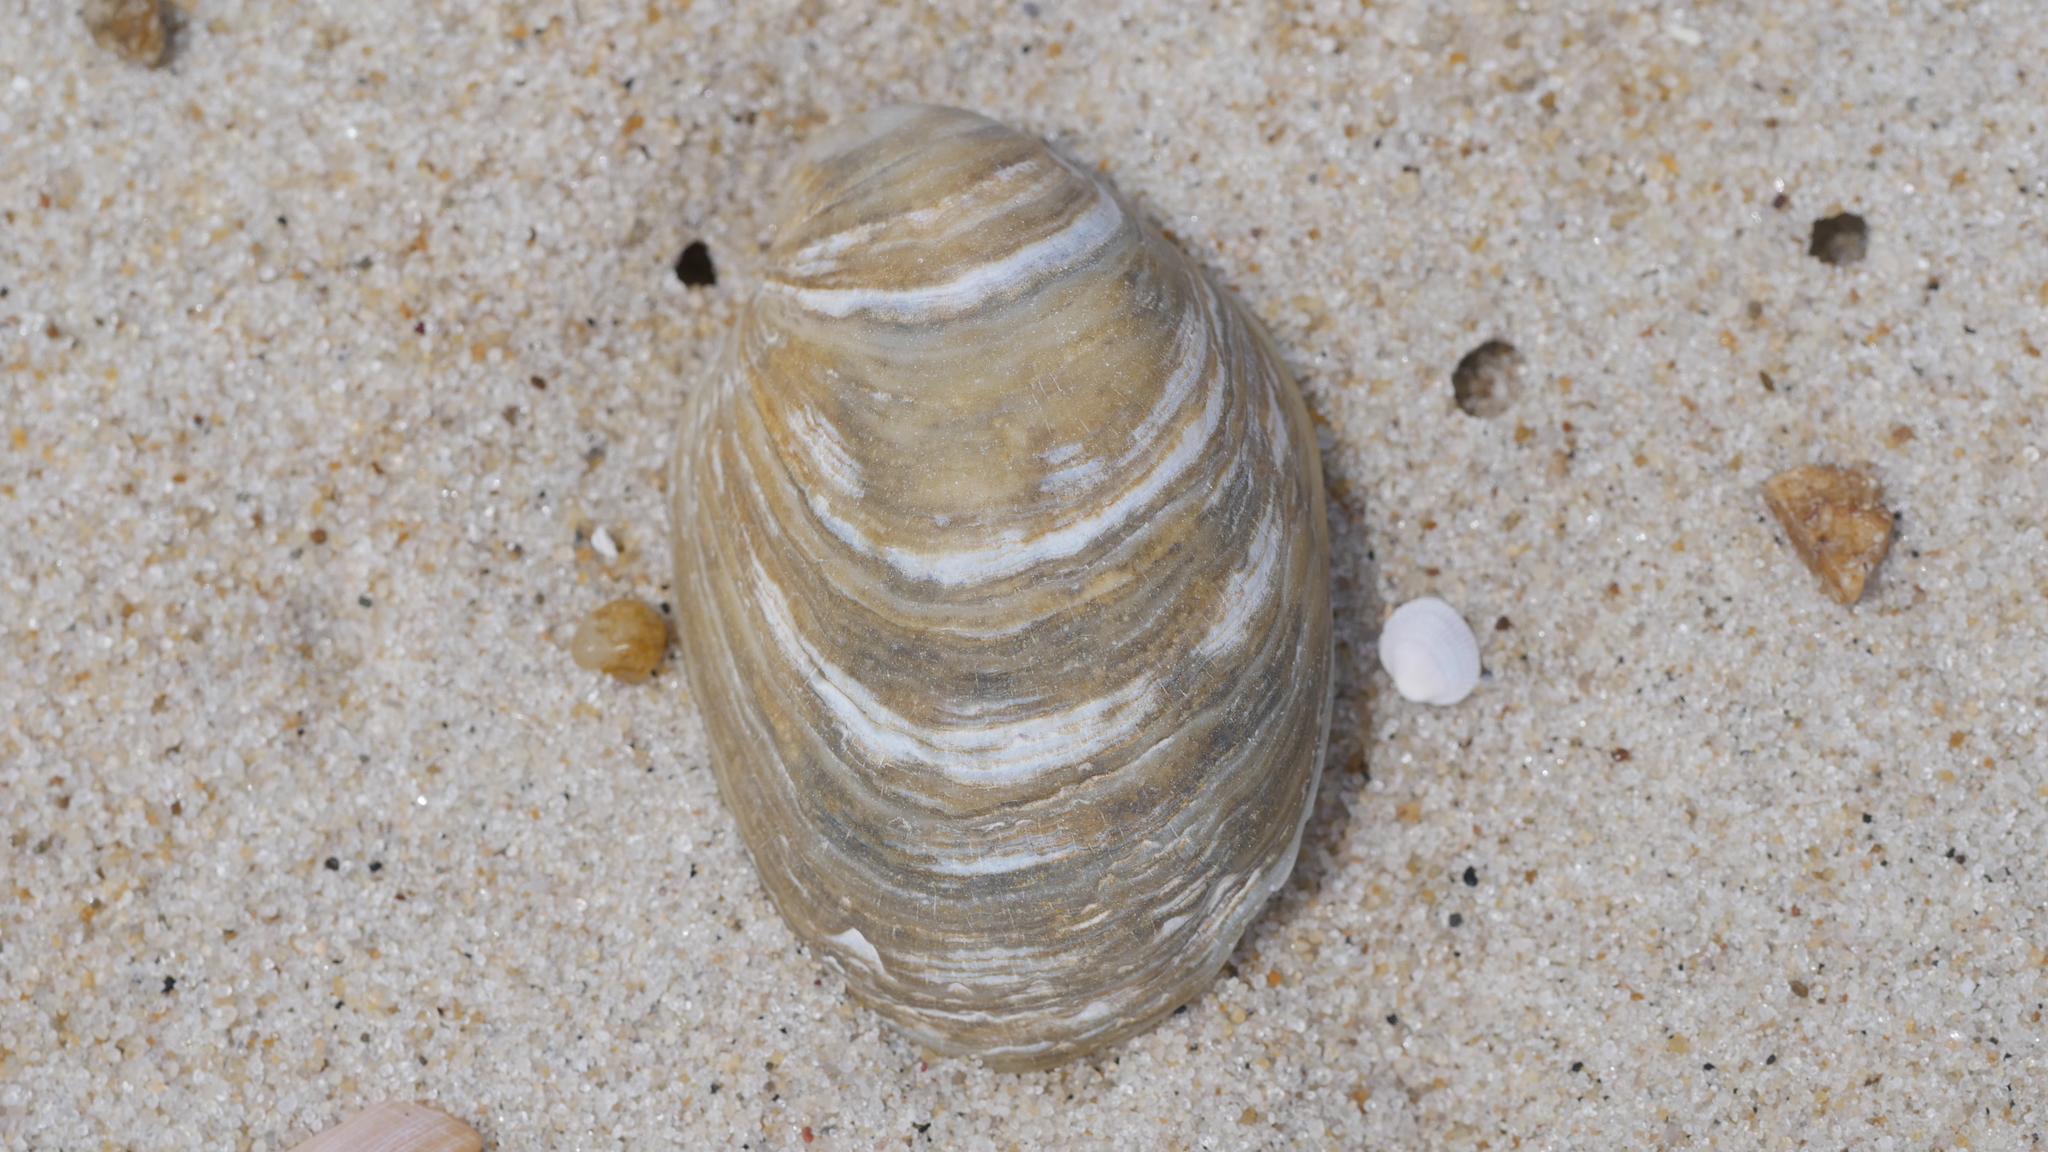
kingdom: Animalia
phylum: Mollusca
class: Gastropoda
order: Littorinimorpha
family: Calyptraeidae
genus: Crepidula
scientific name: Crepidula fornicata
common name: Slipper limpet
